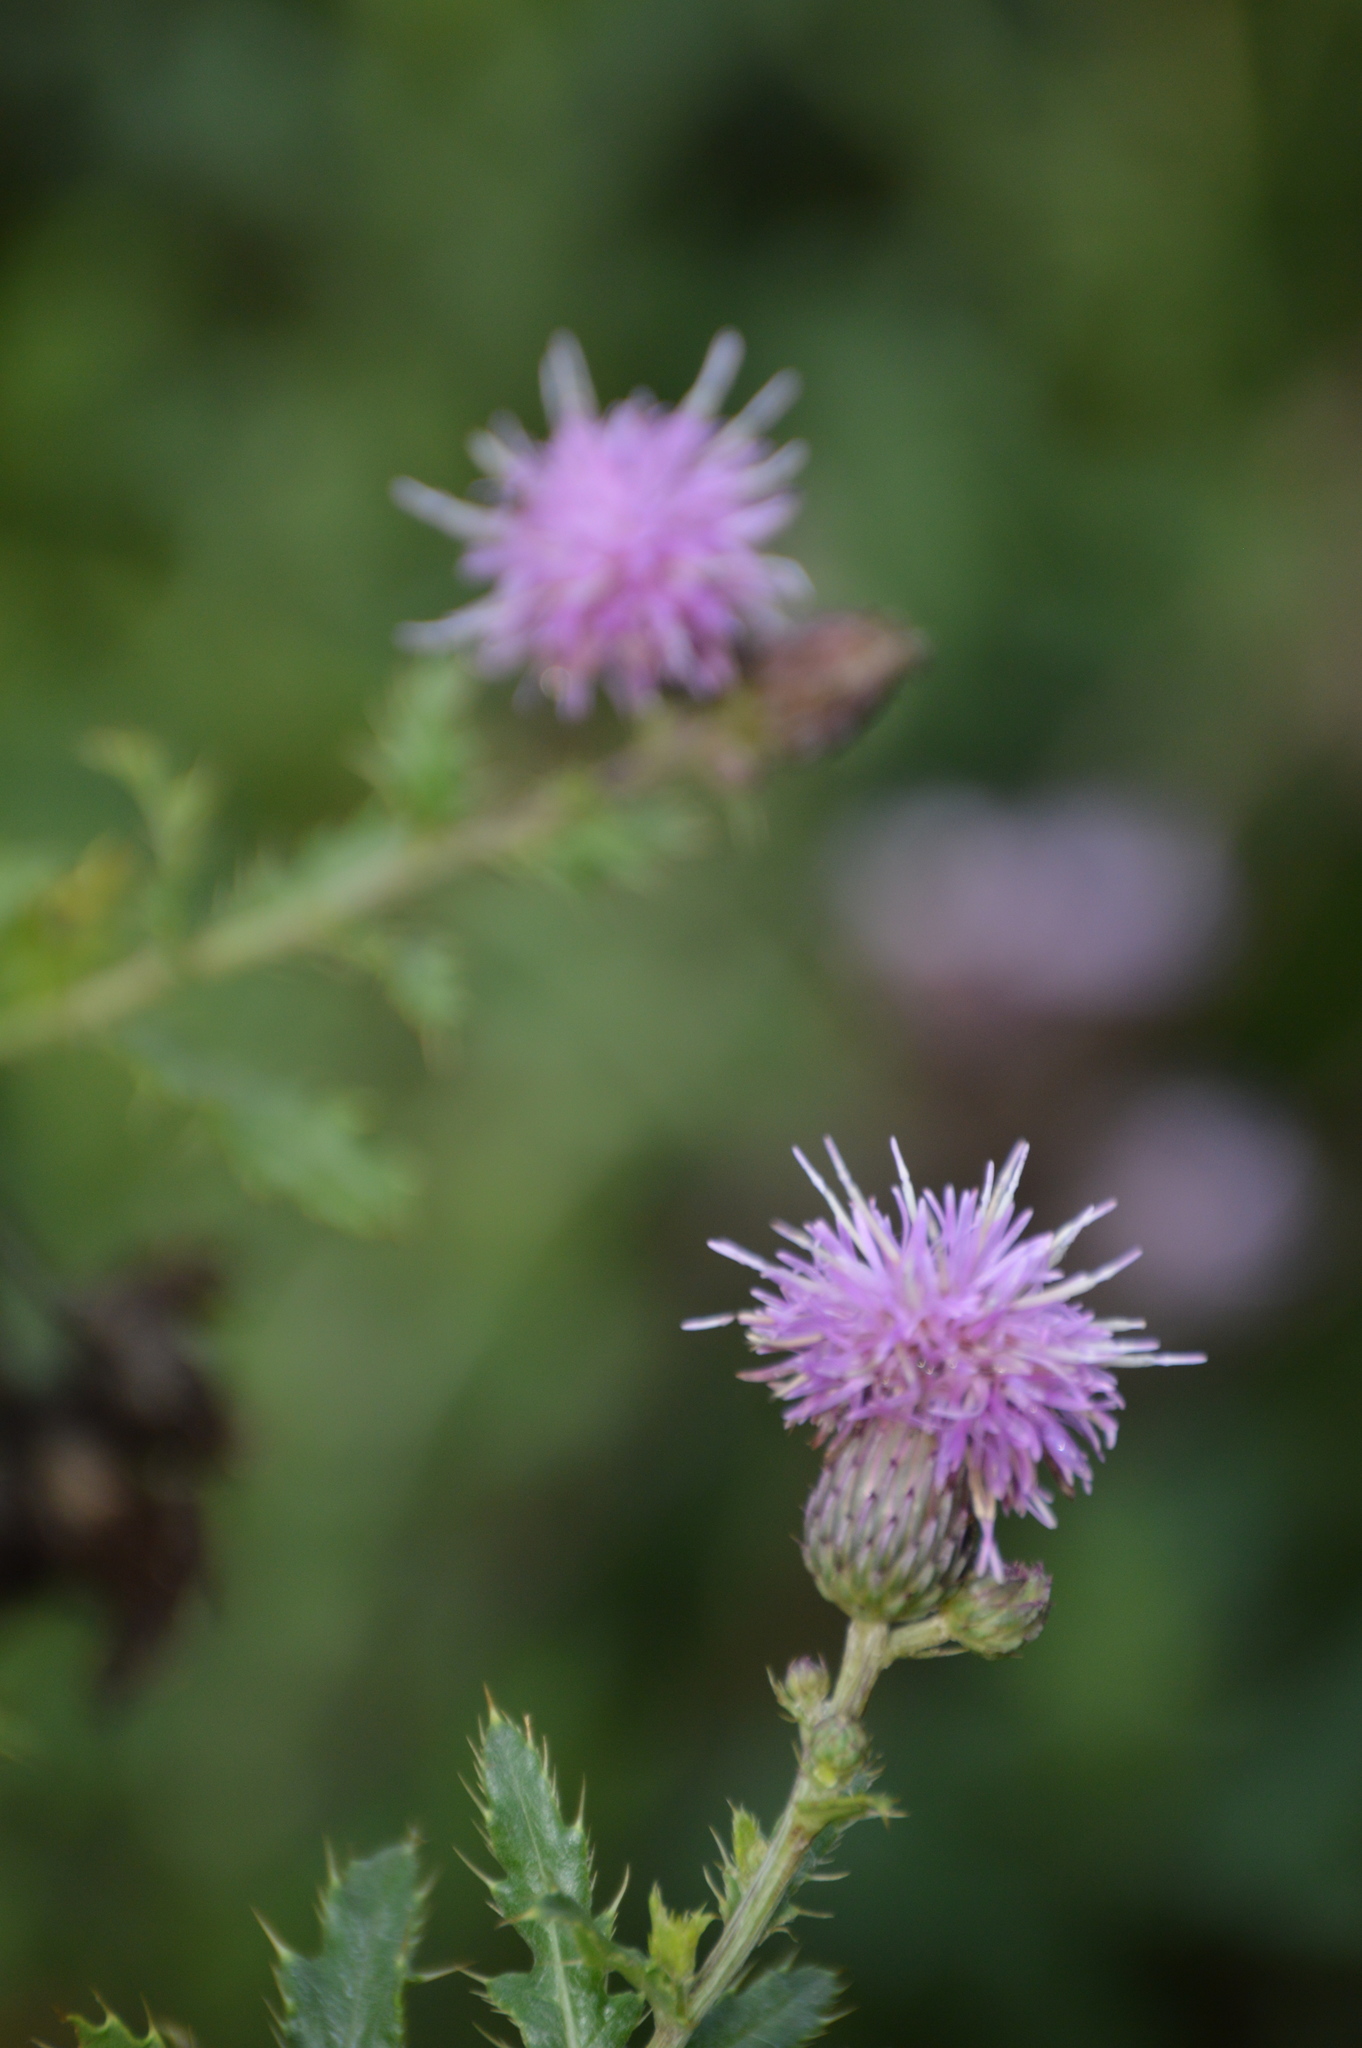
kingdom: Plantae
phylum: Tracheophyta
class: Magnoliopsida
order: Asterales
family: Asteraceae
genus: Cirsium
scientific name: Cirsium arvense
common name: Creeping thistle
